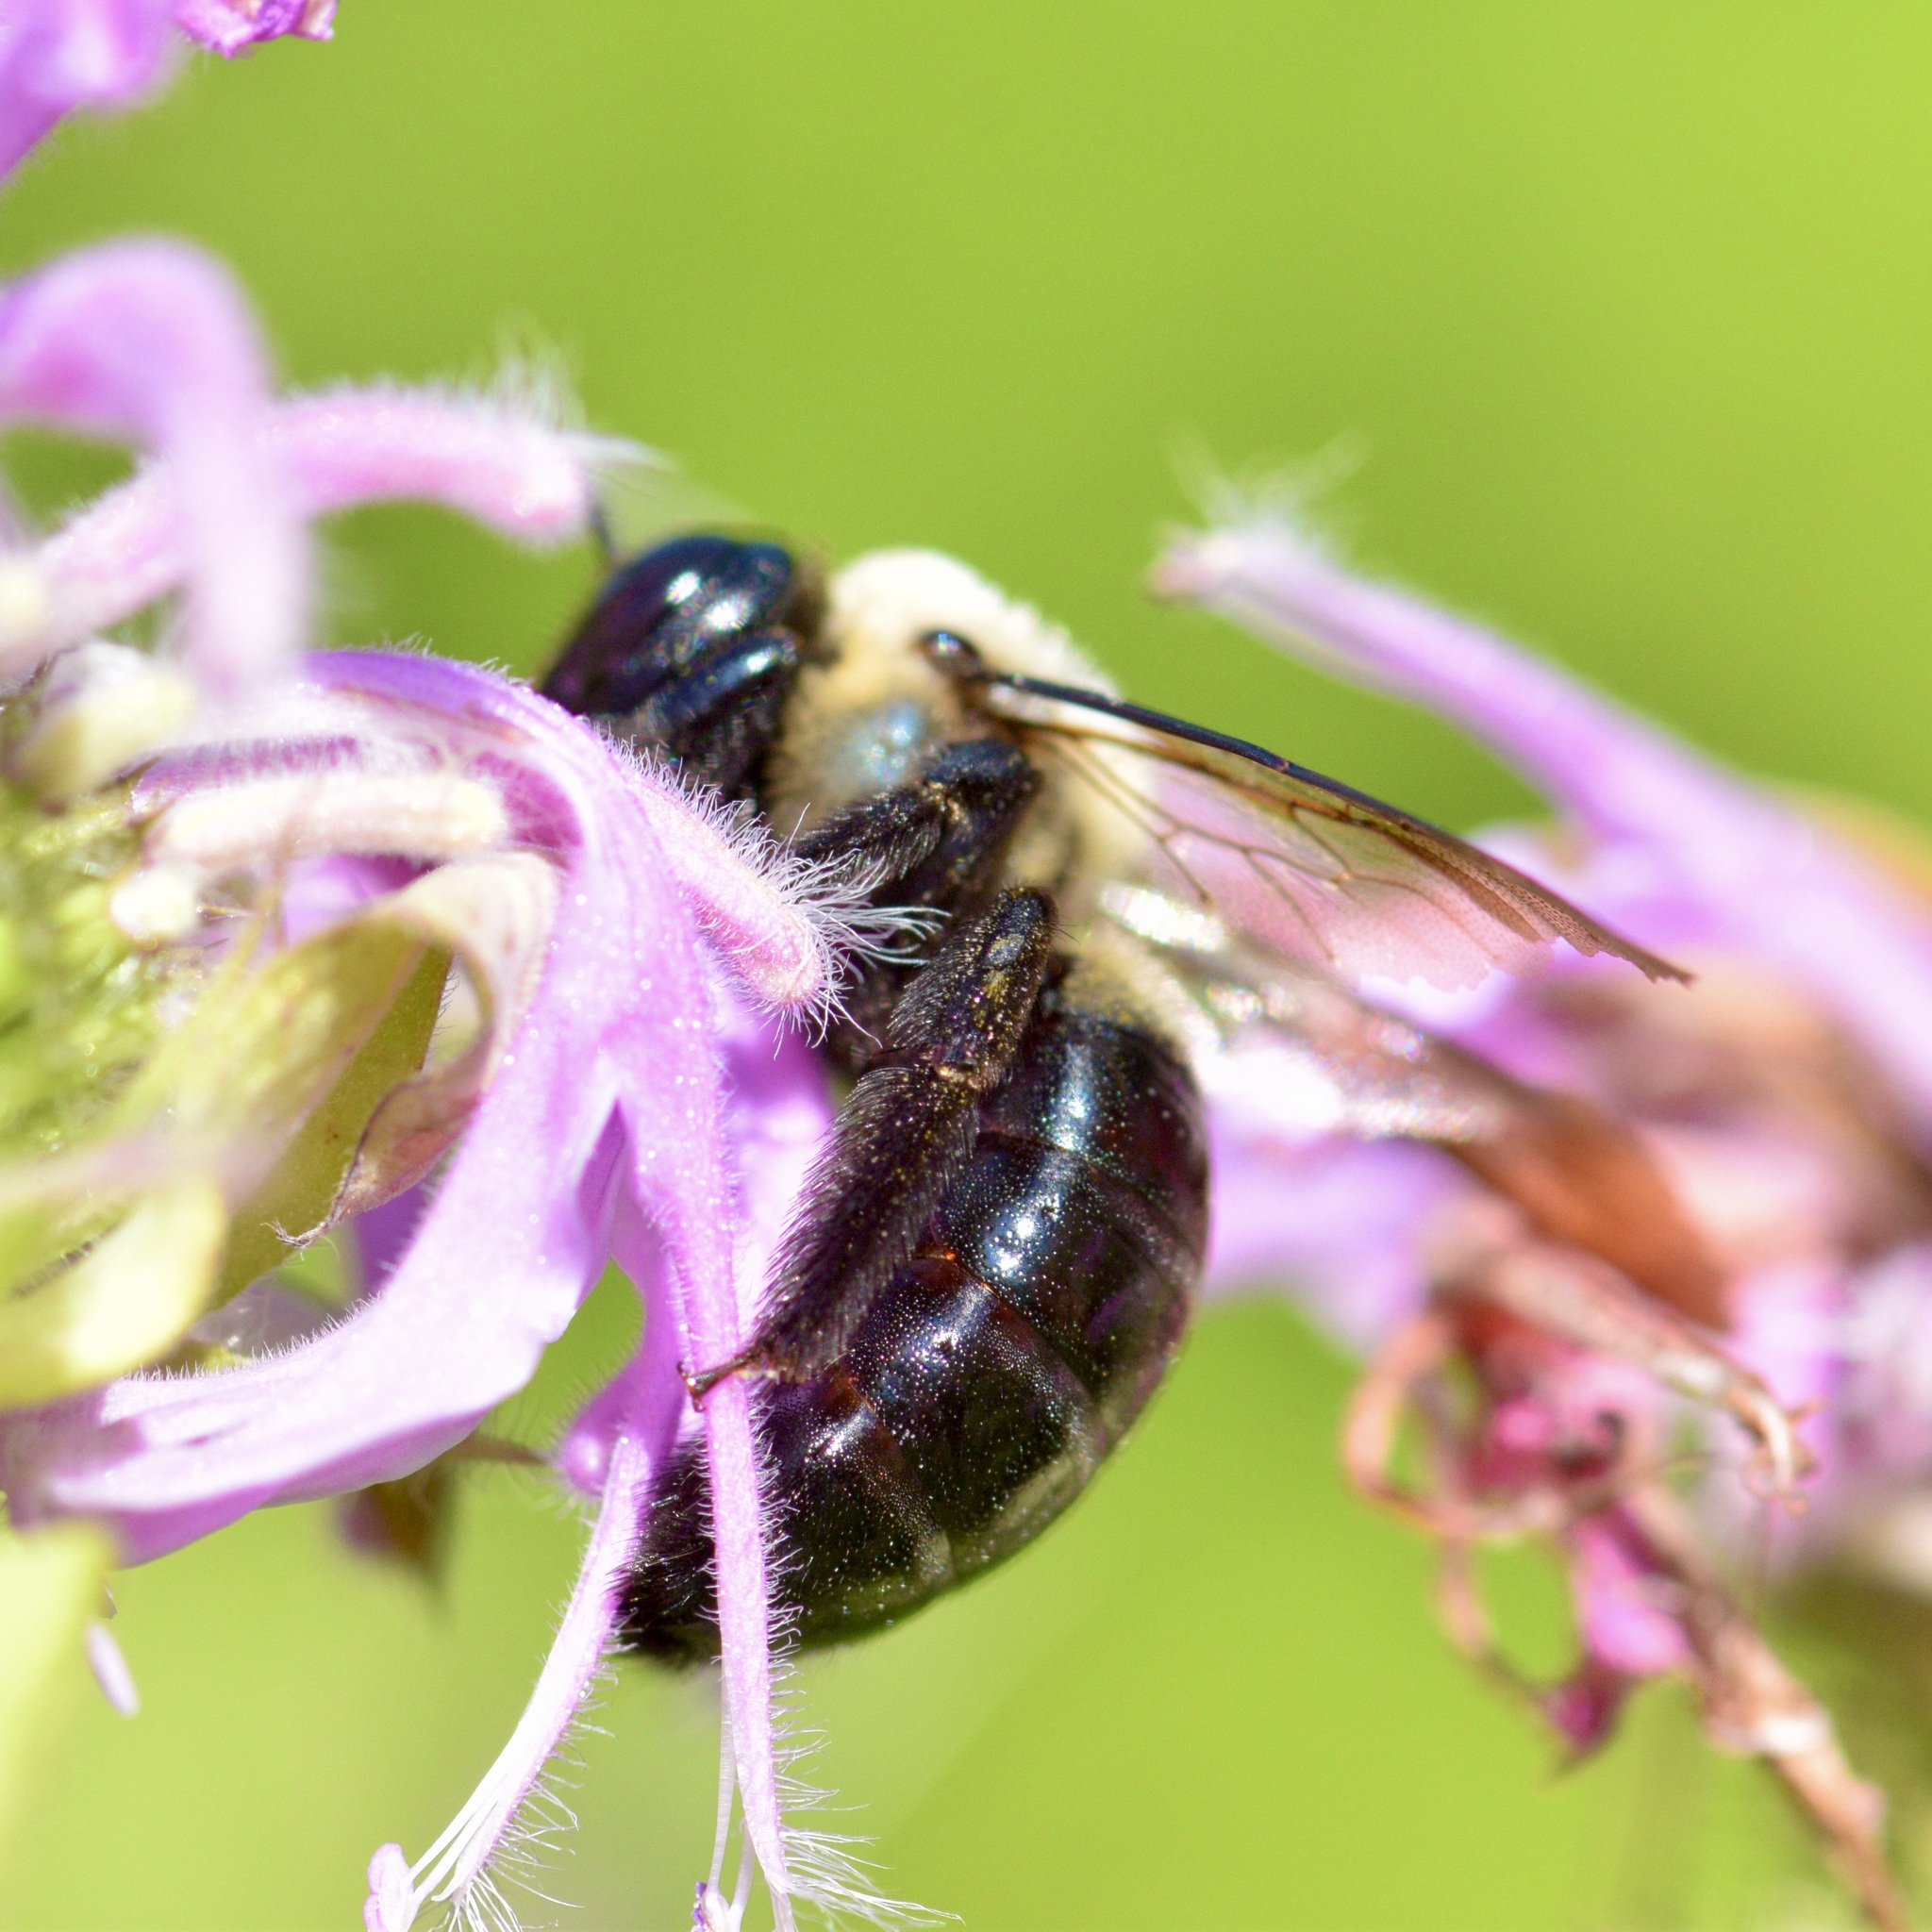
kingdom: Animalia
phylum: Arthropoda
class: Insecta
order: Hymenoptera
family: Apidae
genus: Xylocopa
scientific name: Xylocopa virginica
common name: Carpenter bee
